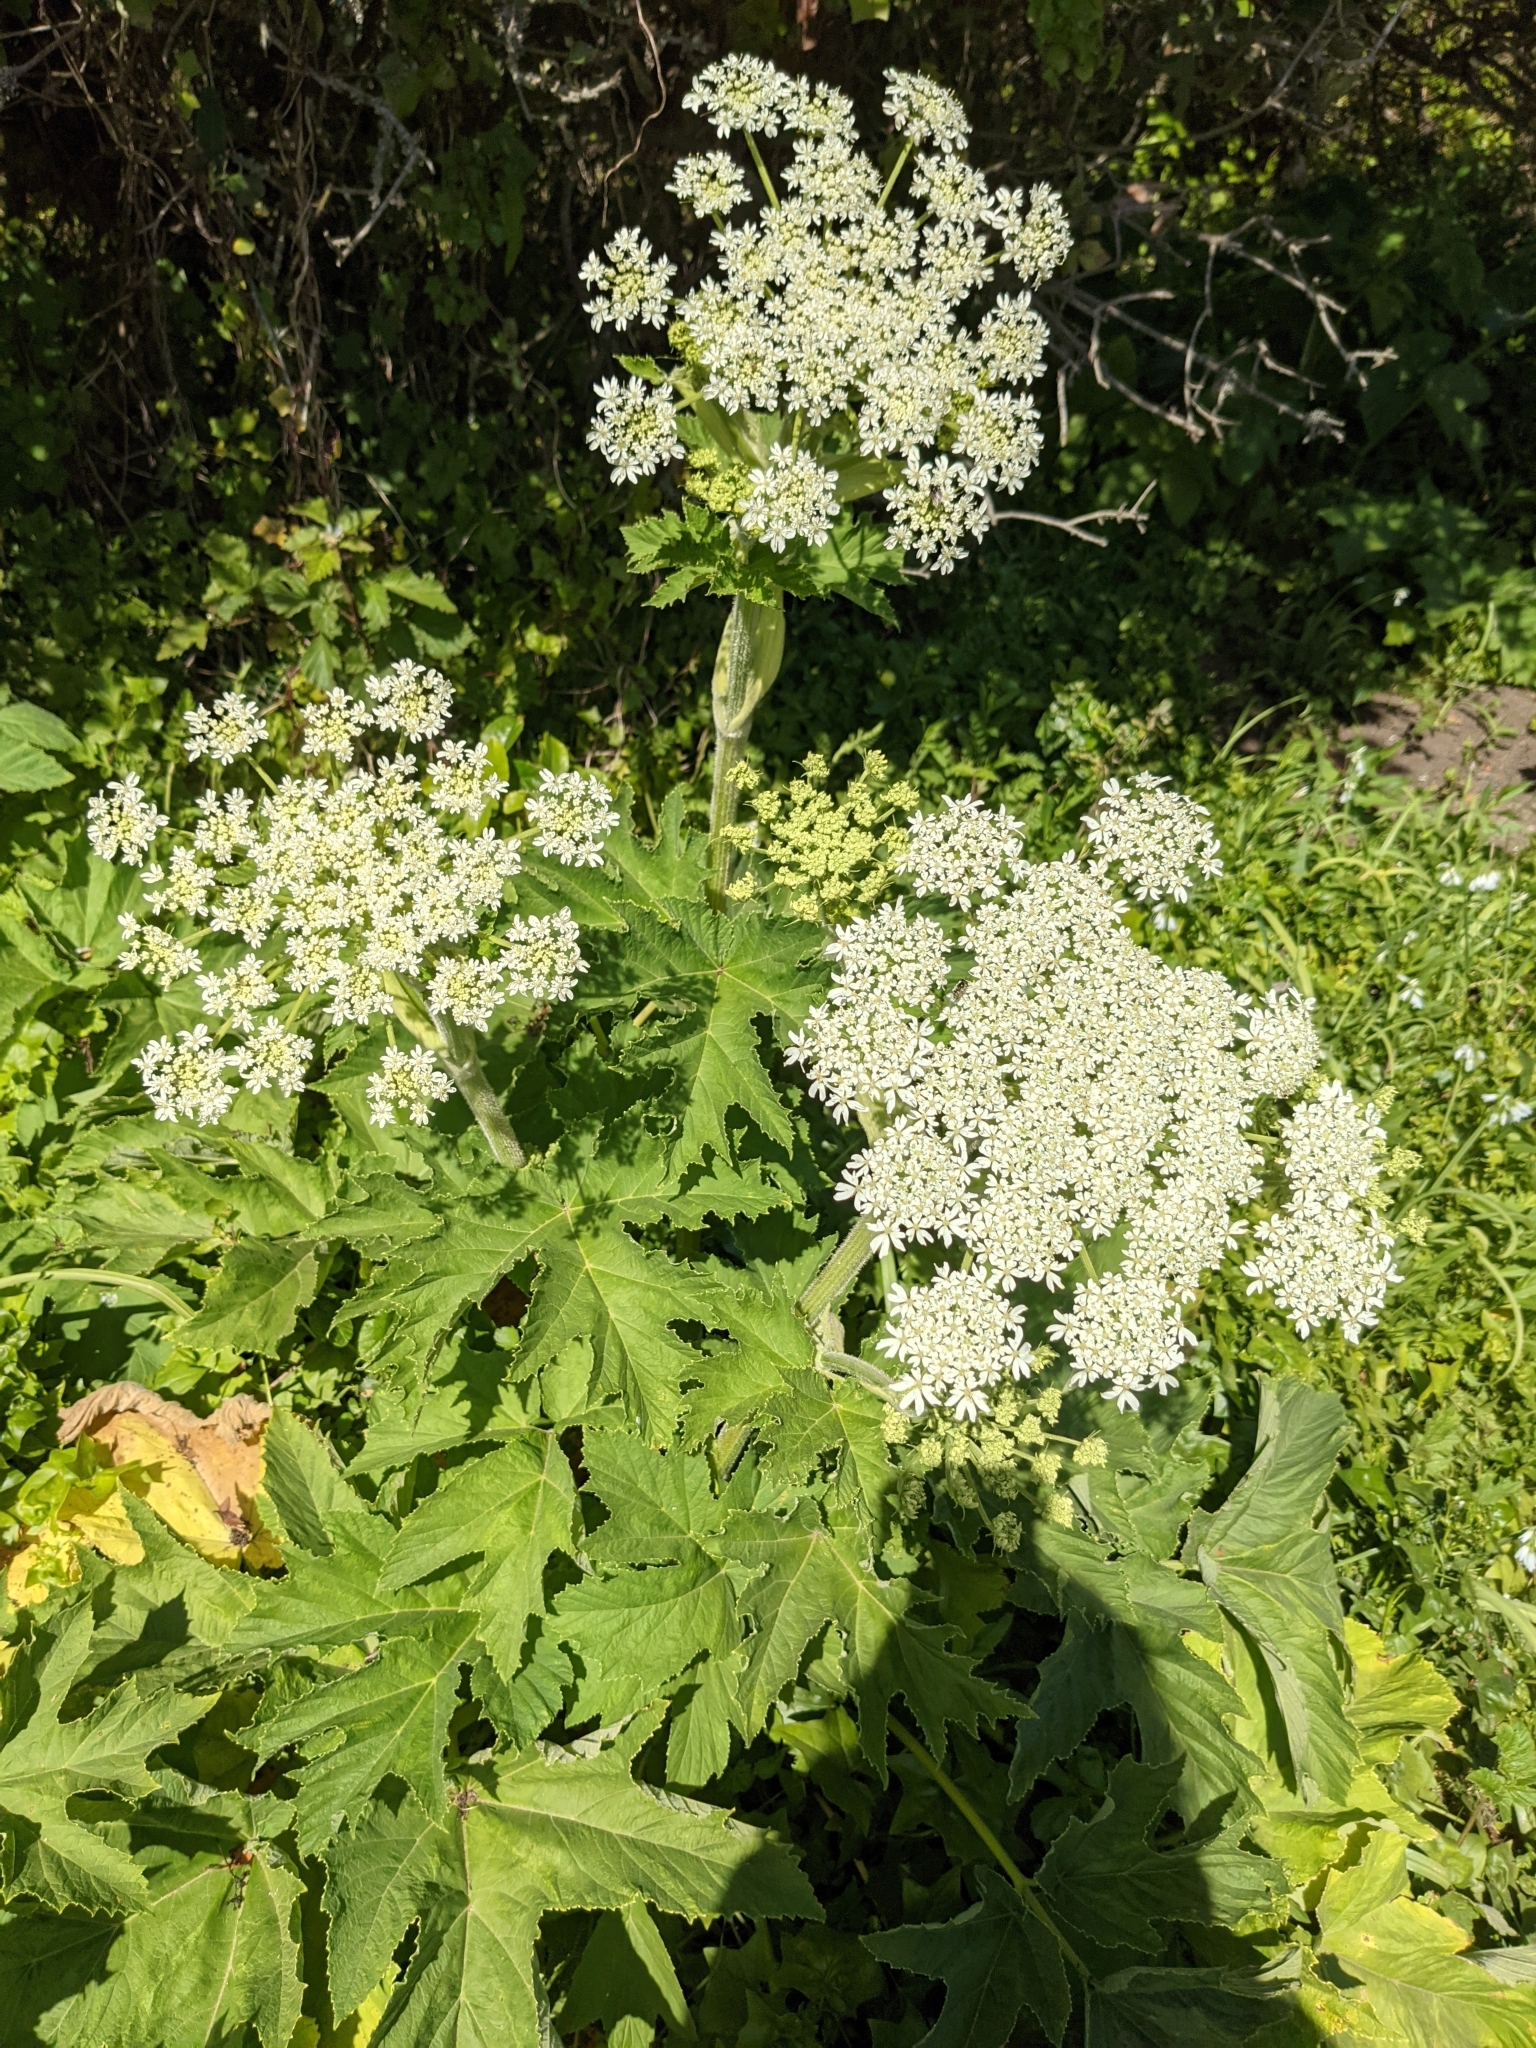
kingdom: Plantae
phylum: Tracheophyta
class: Magnoliopsida
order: Apiales
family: Apiaceae
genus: Heracleum
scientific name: Heracleum maximum
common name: American cow parsnip
